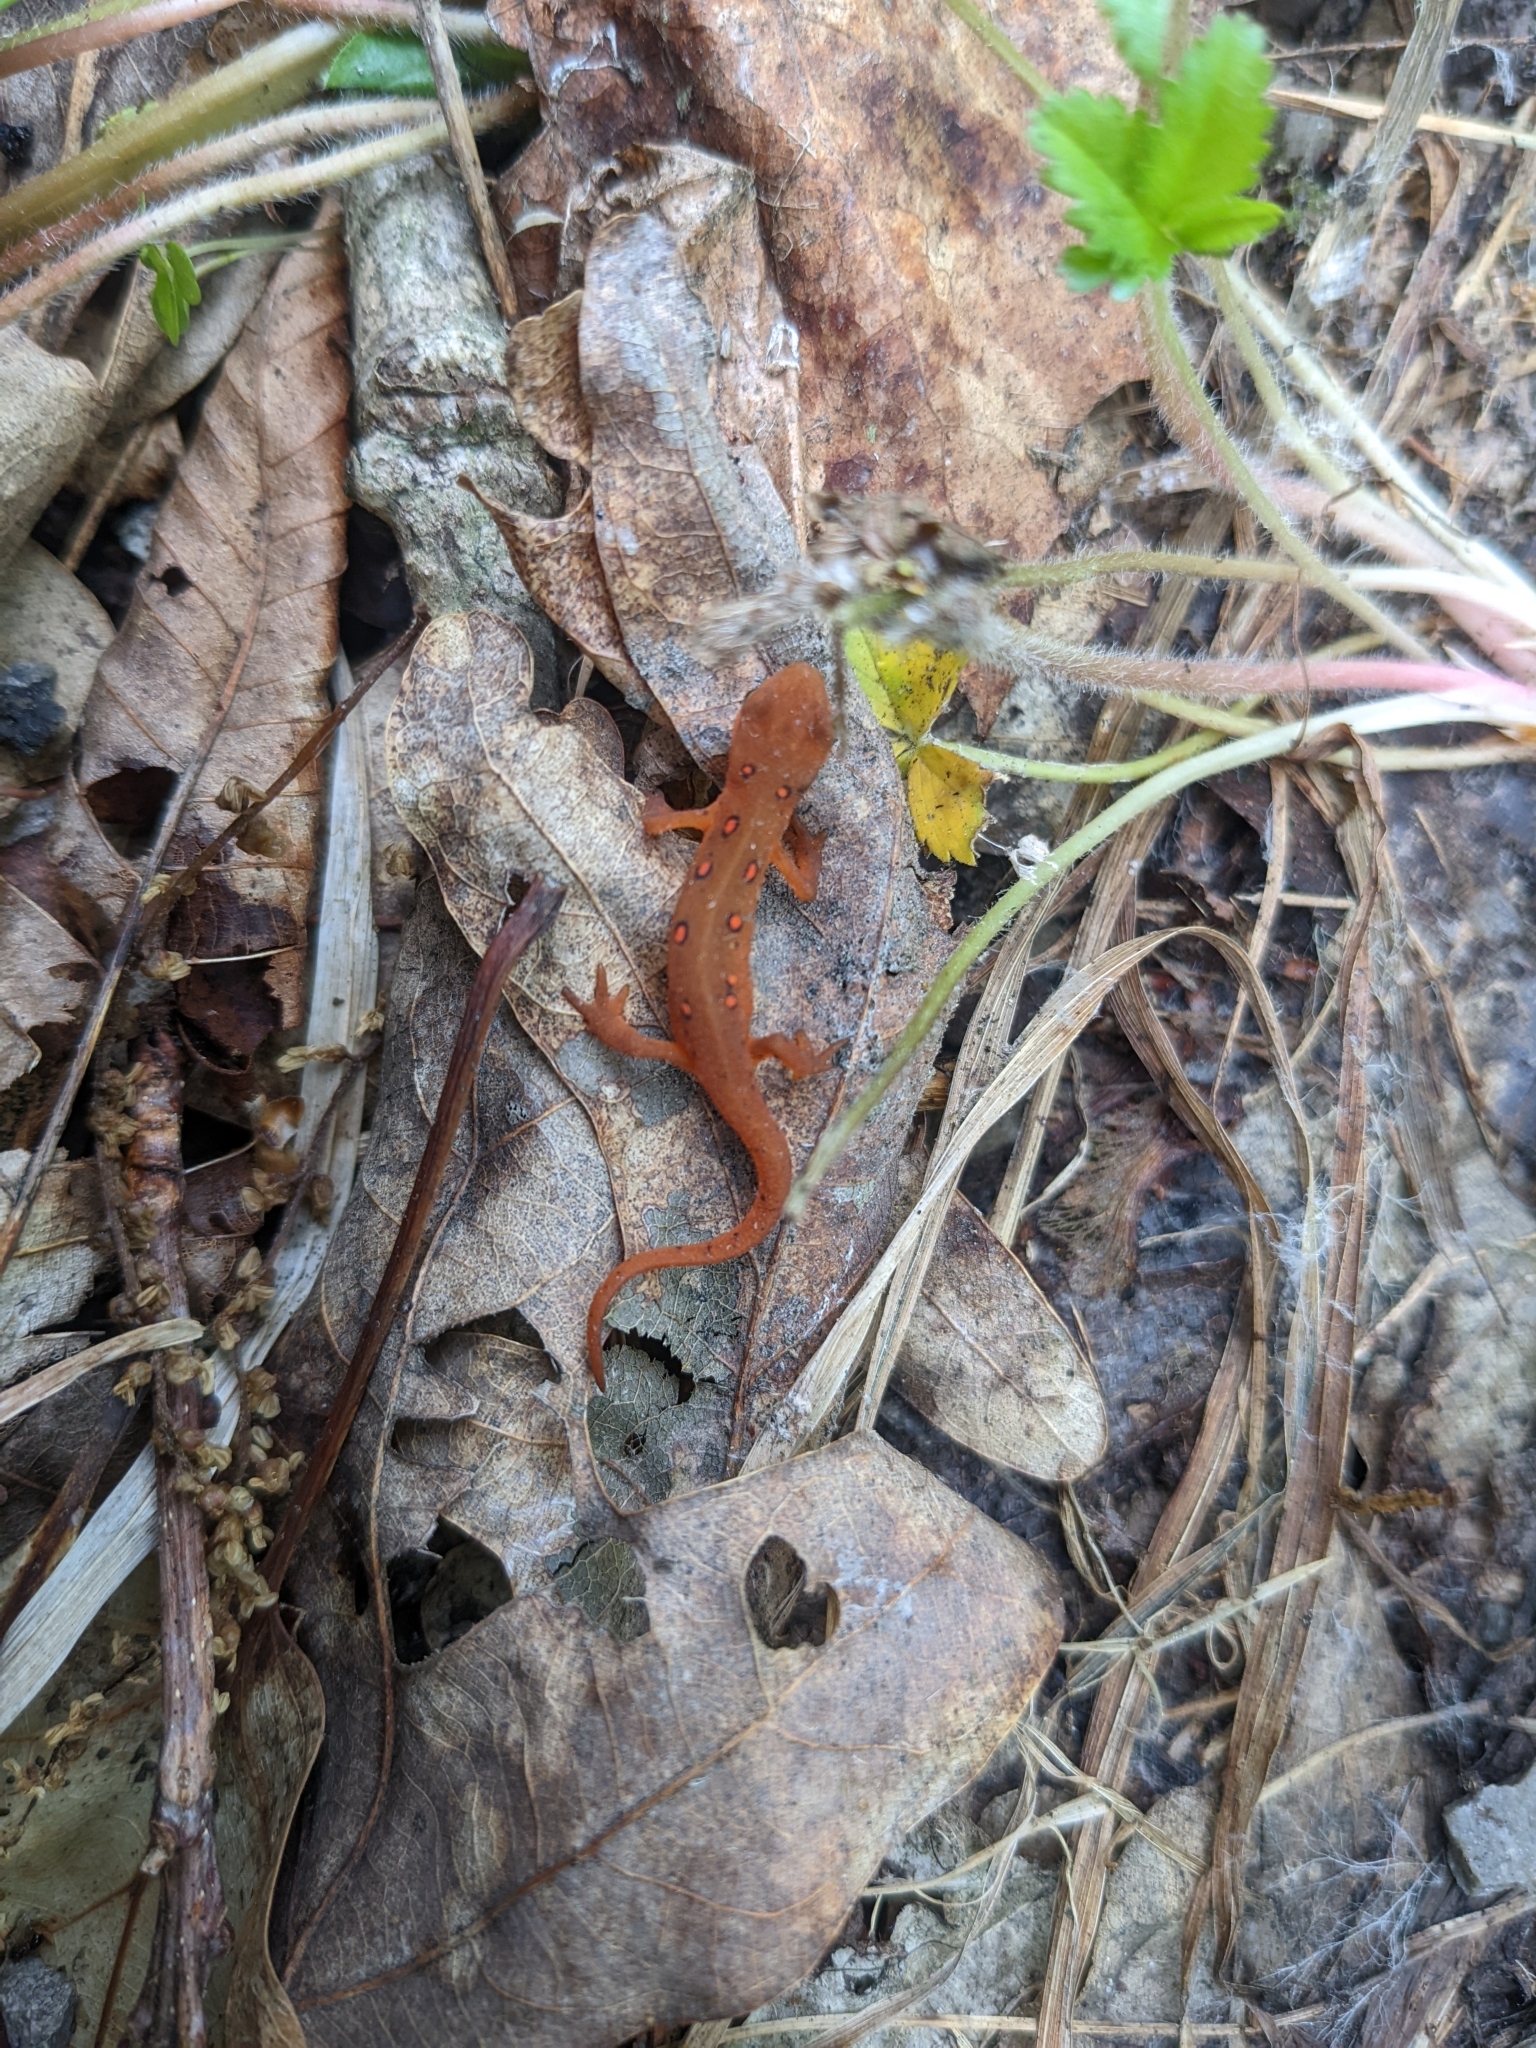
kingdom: Animalia
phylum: Chordata
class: Amphibia
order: Caudata
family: Salamandridae
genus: Notophthalmus
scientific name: Notophthalmus viridescens
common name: Eastern newt
